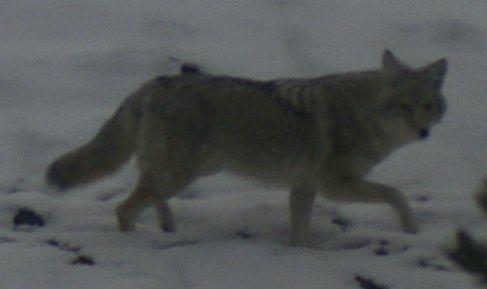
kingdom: Animalia
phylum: Chordata
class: Mammalia
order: Carnivora
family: Canidae
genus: Canis
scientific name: Canis latrans
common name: Coyote
